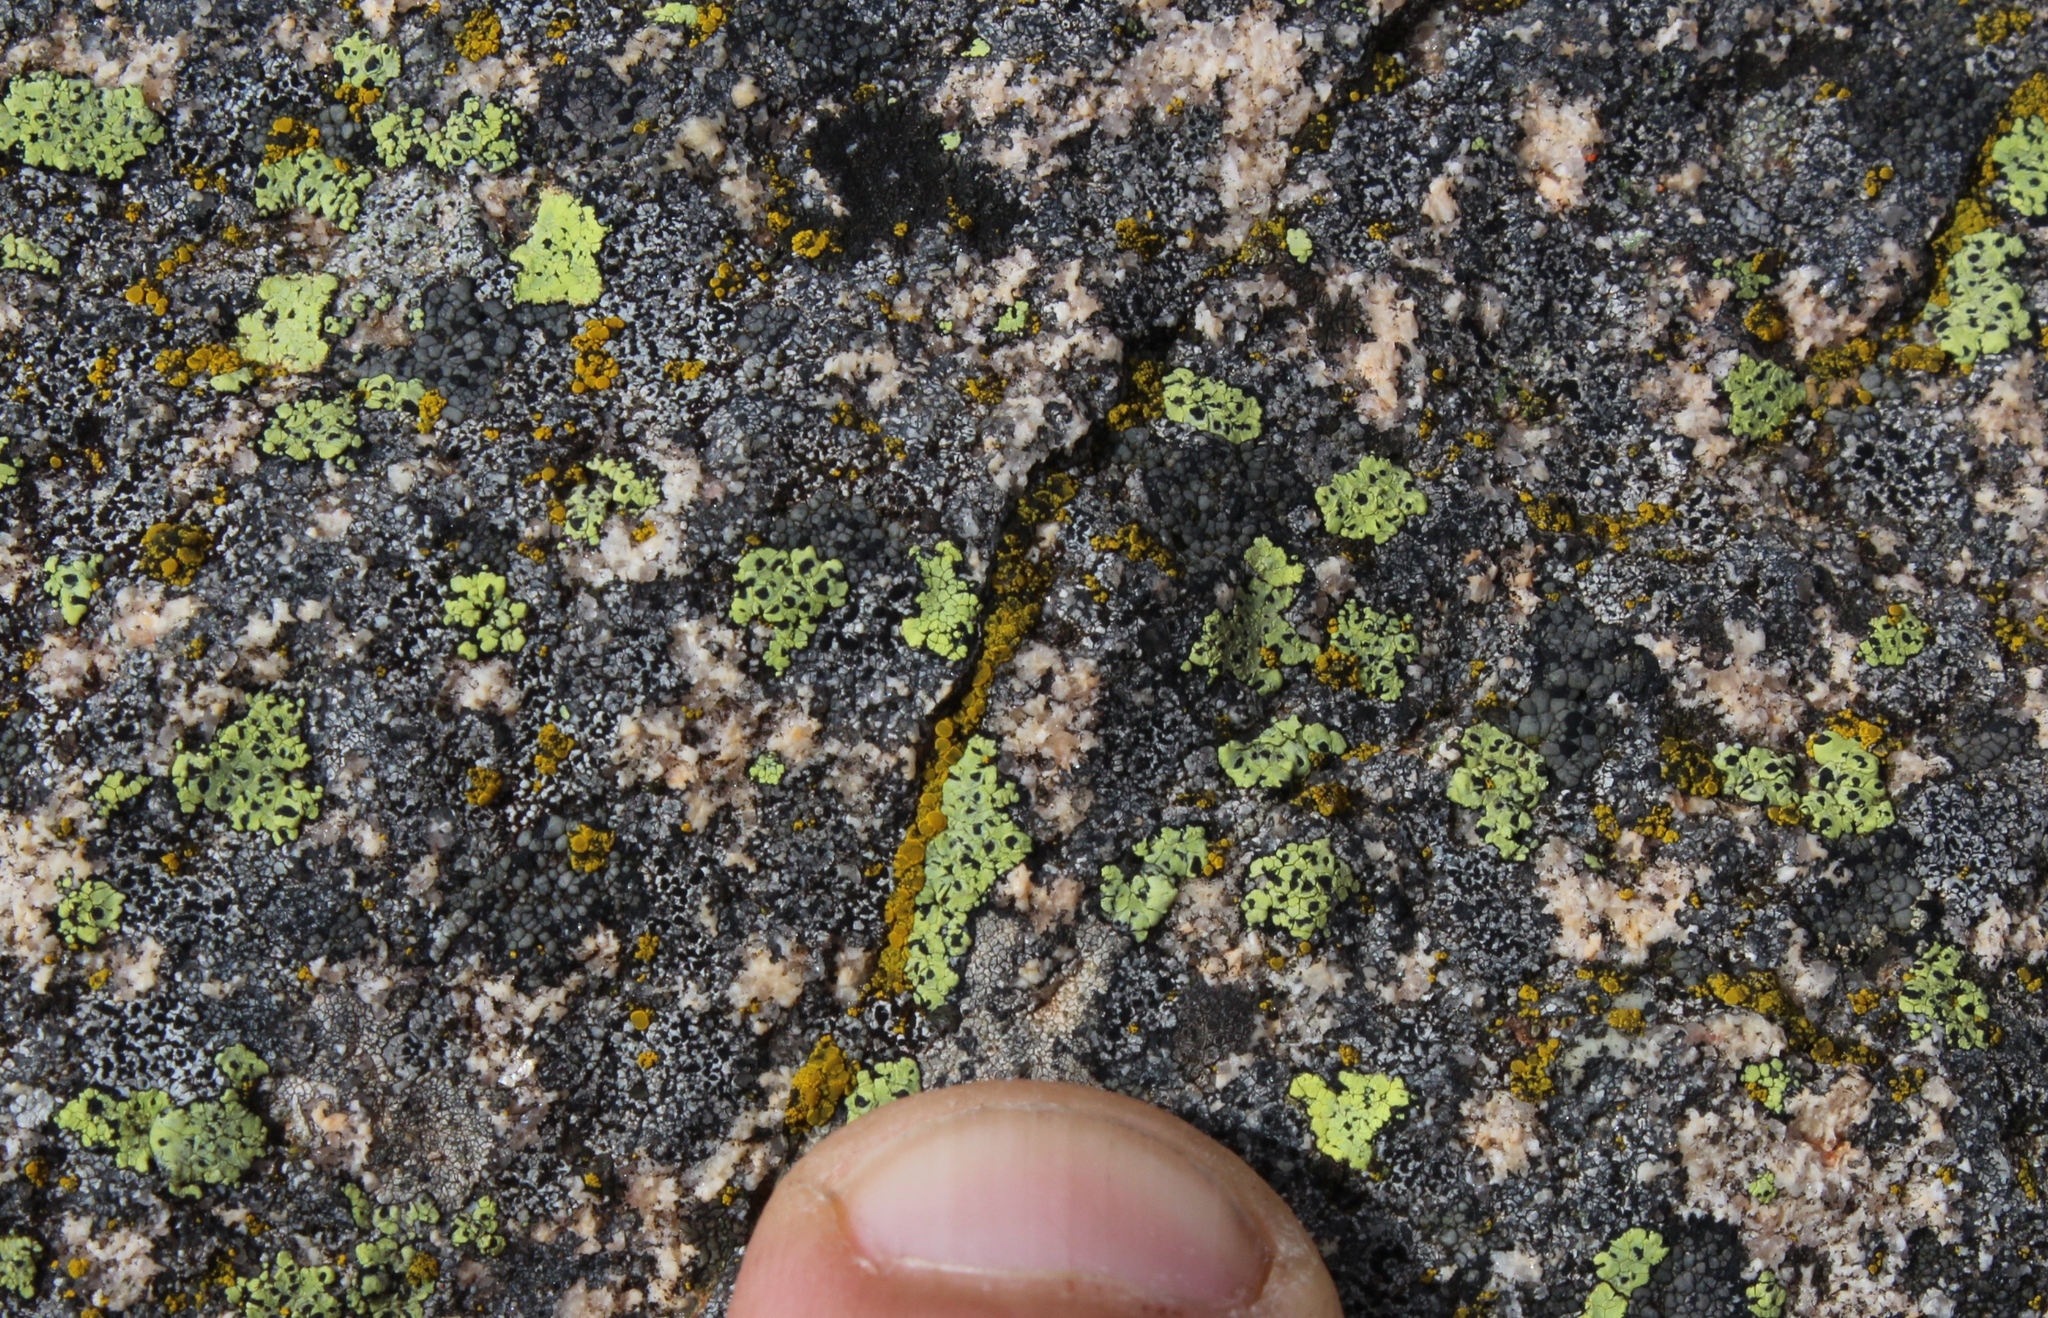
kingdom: Fungi
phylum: Ascomycota
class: Lecanoromycetes
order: Rhizocarpales
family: Rhizocarpaceae
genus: Rhizocarpon
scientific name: Rhizocarpon lecanorinum
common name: Crescent map lichen
